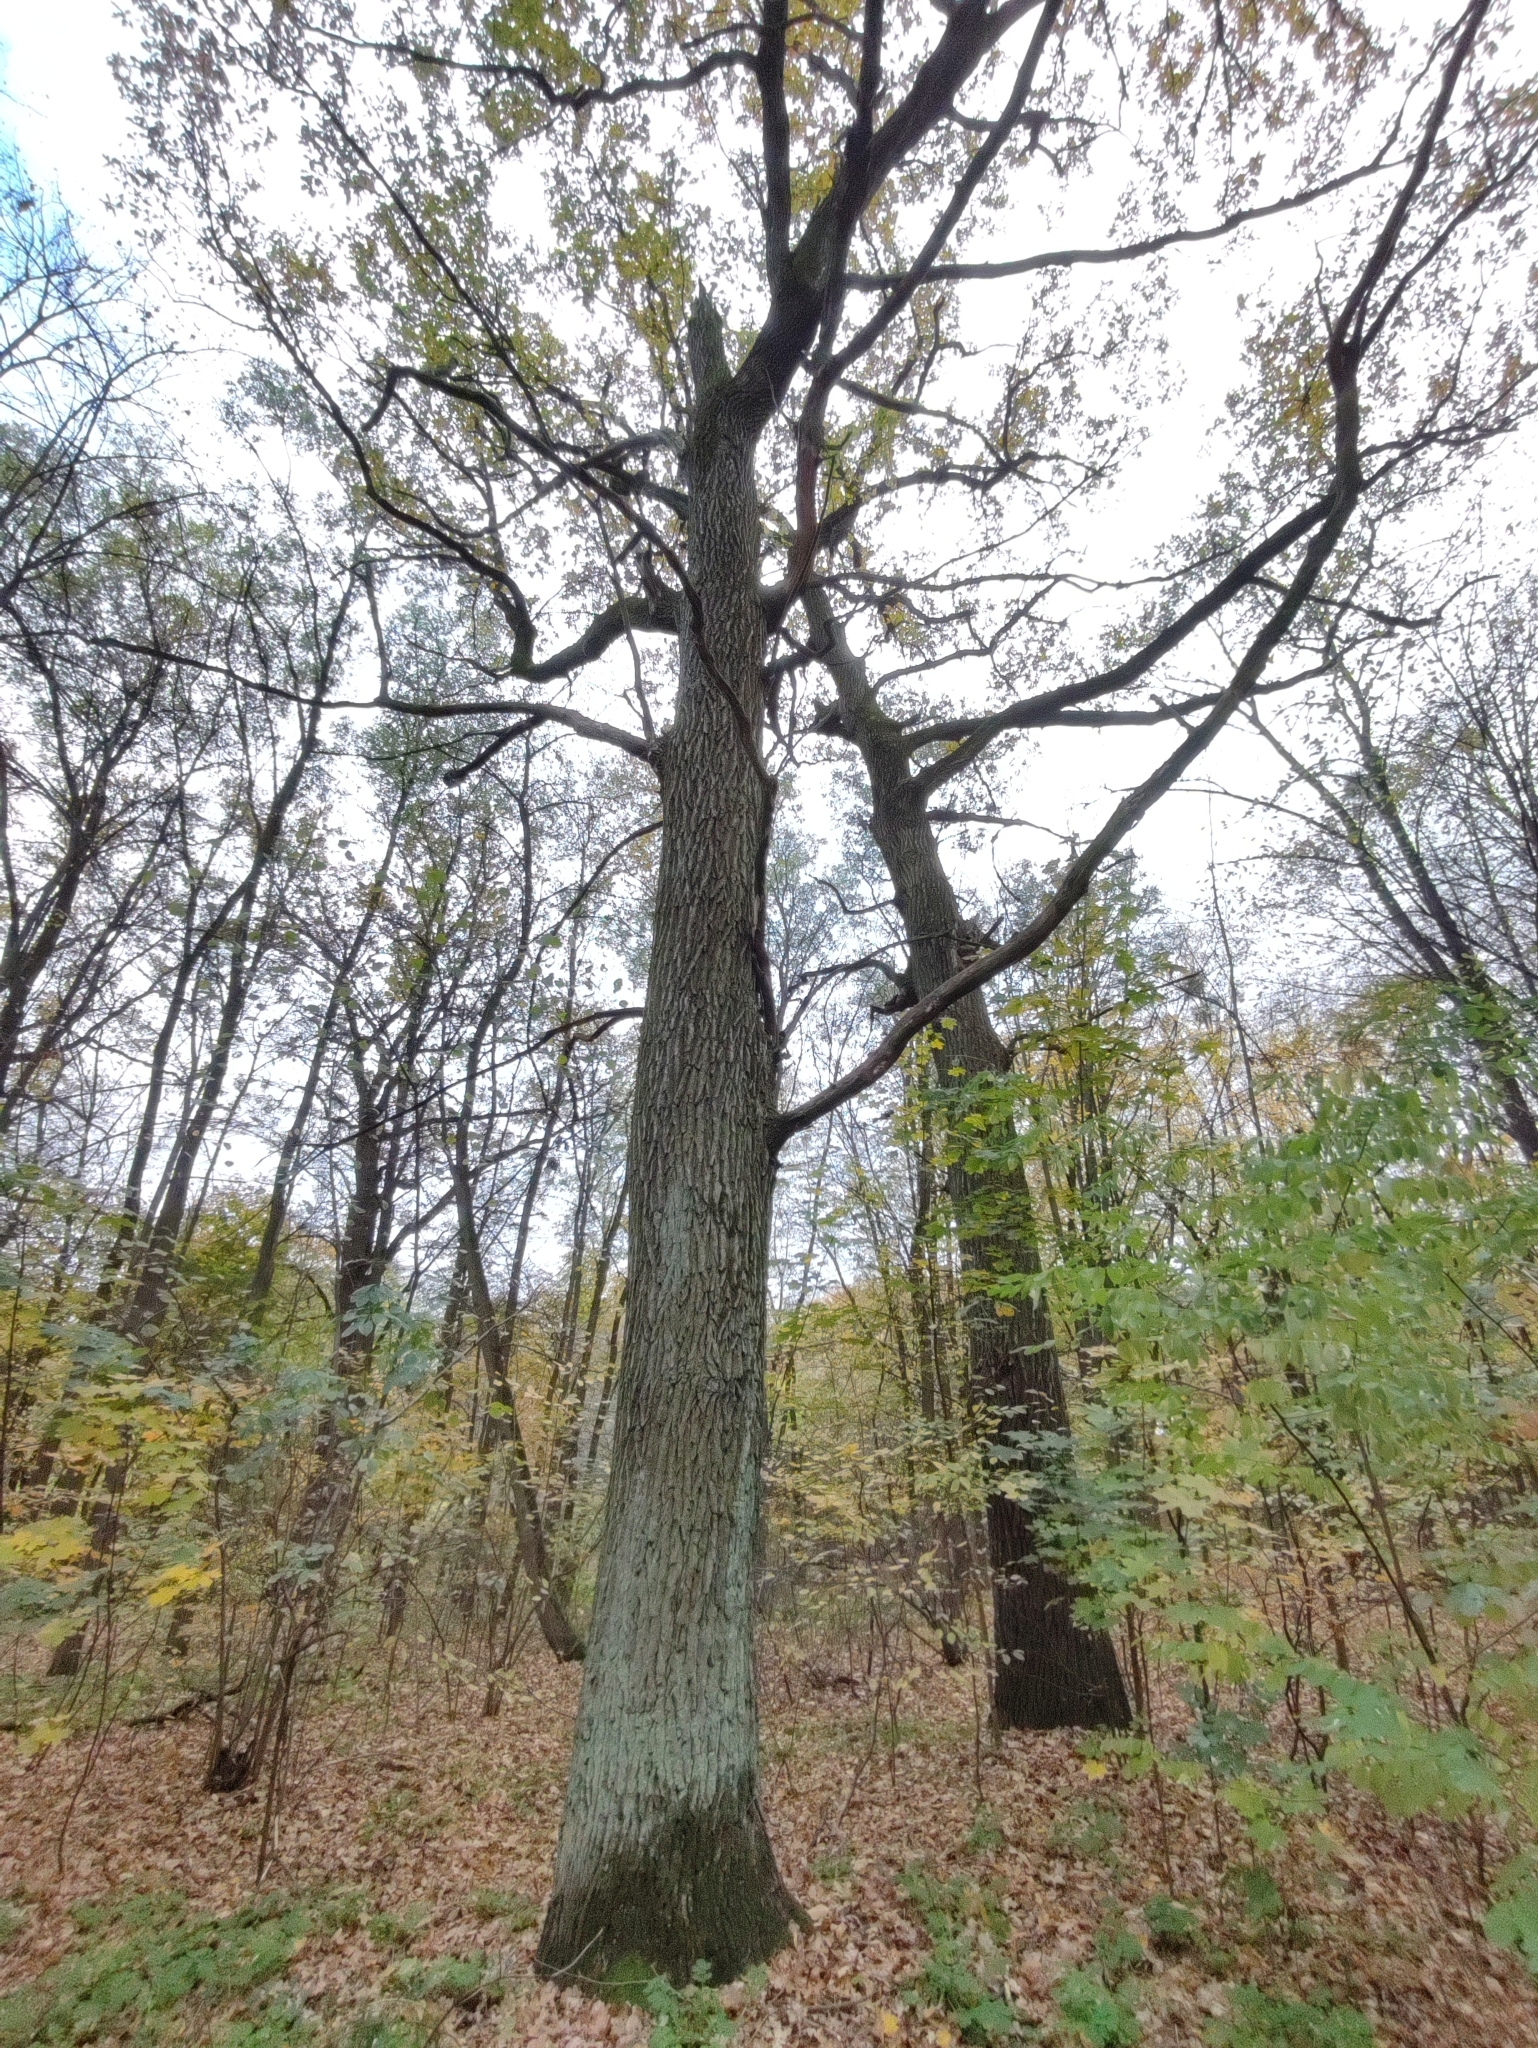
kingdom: Plantae
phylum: Tracheophyta
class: Magnoliopsida
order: Fagales
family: Fagaceae
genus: Quercus
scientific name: Quercus robur
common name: Pedunculate oak
